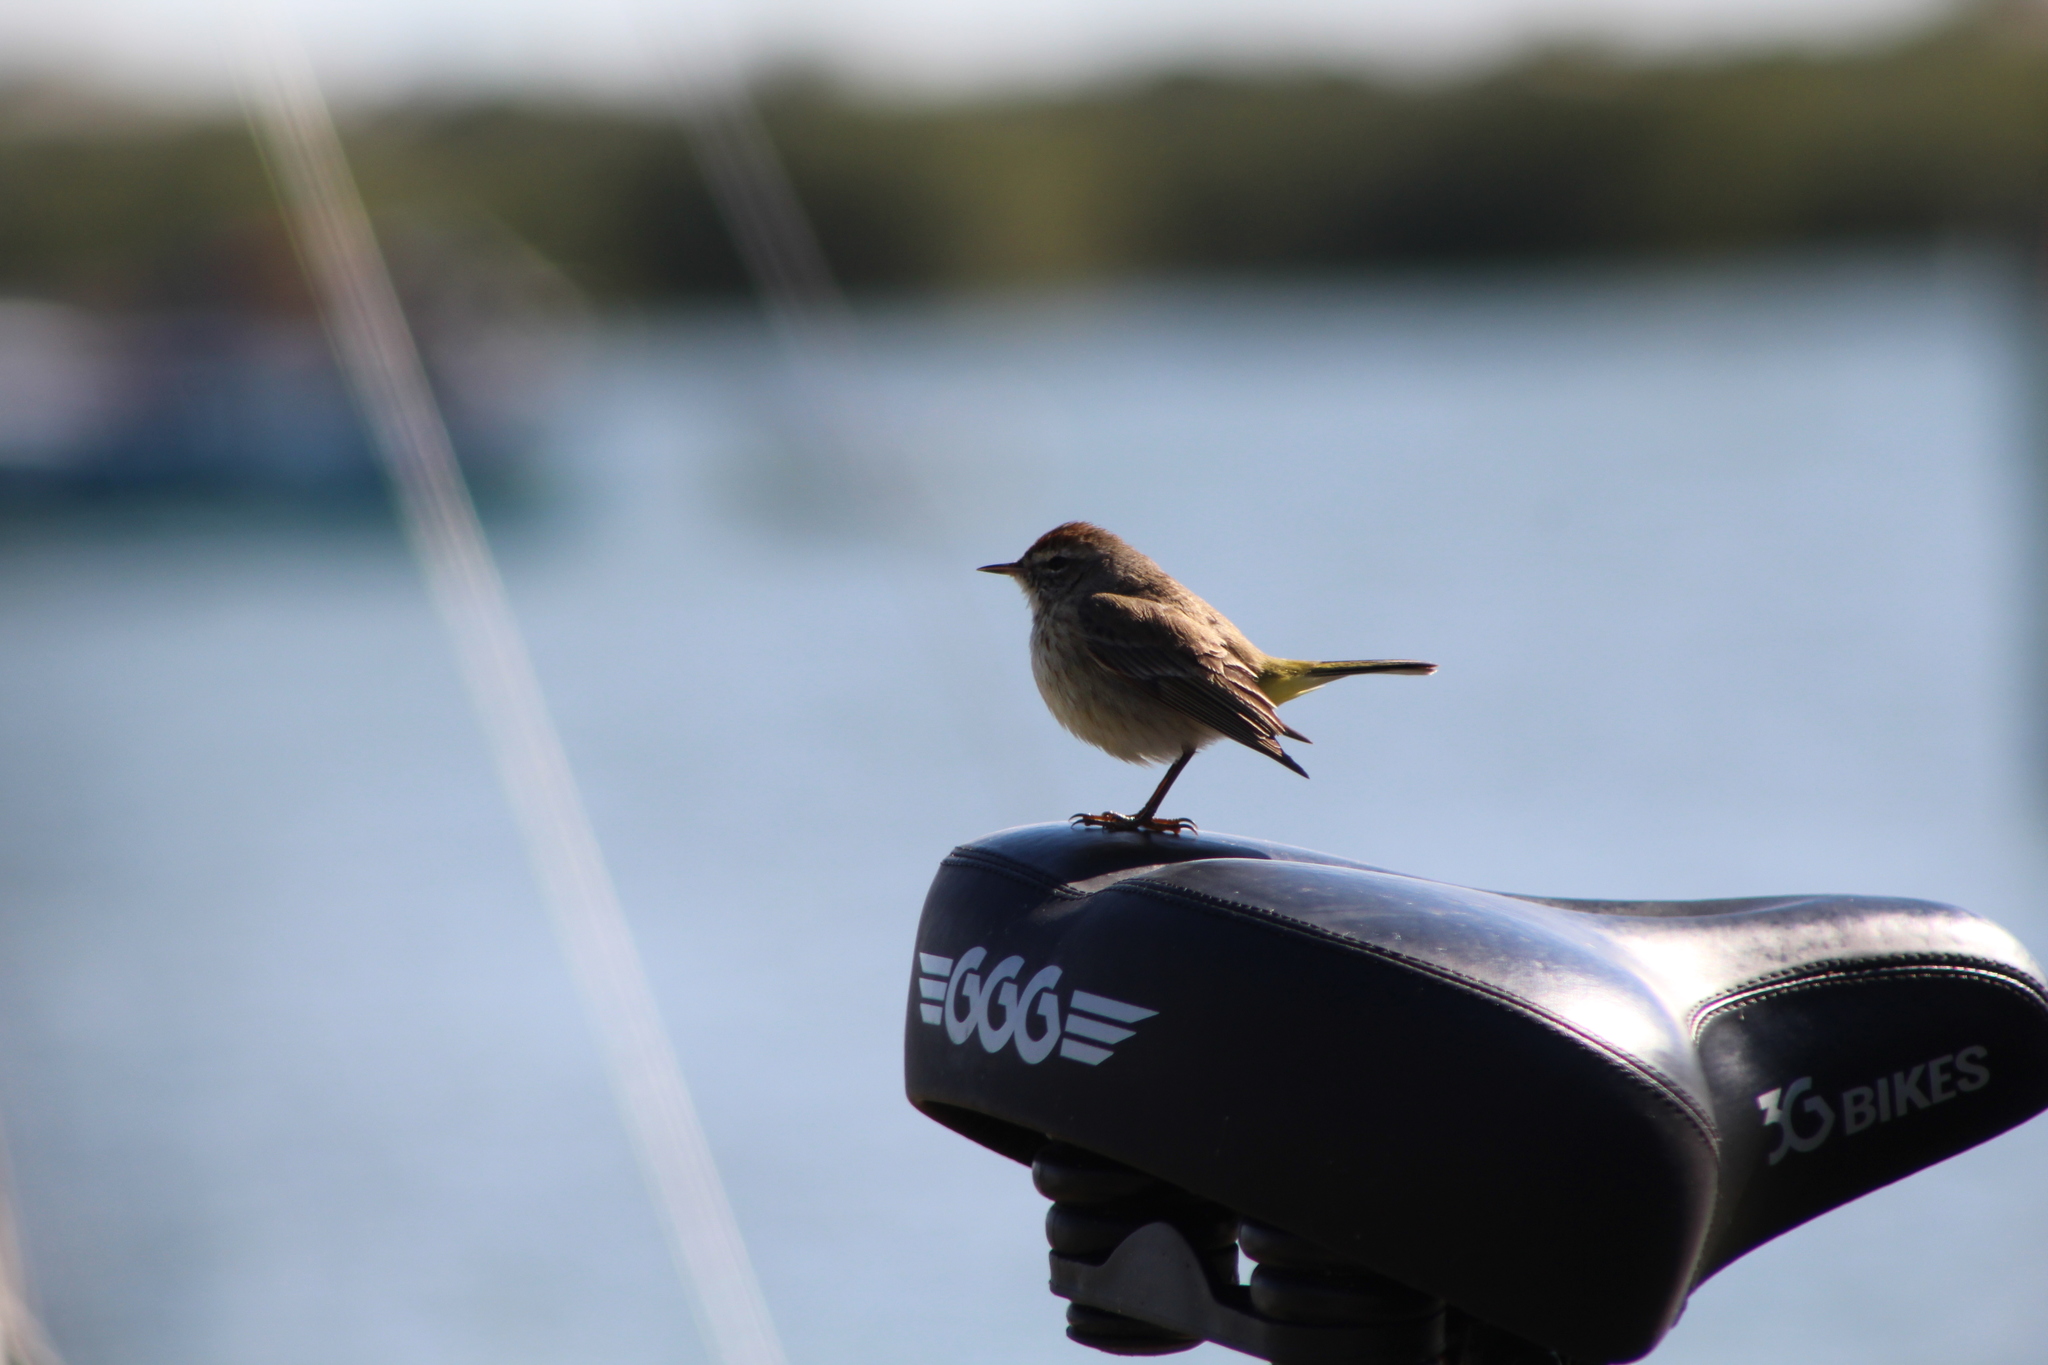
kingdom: Animalia
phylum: Chordata
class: Aves
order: Passeriformes
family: Parulidae
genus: Setophaga
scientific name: Setophaga palmarum
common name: Palm warbler
